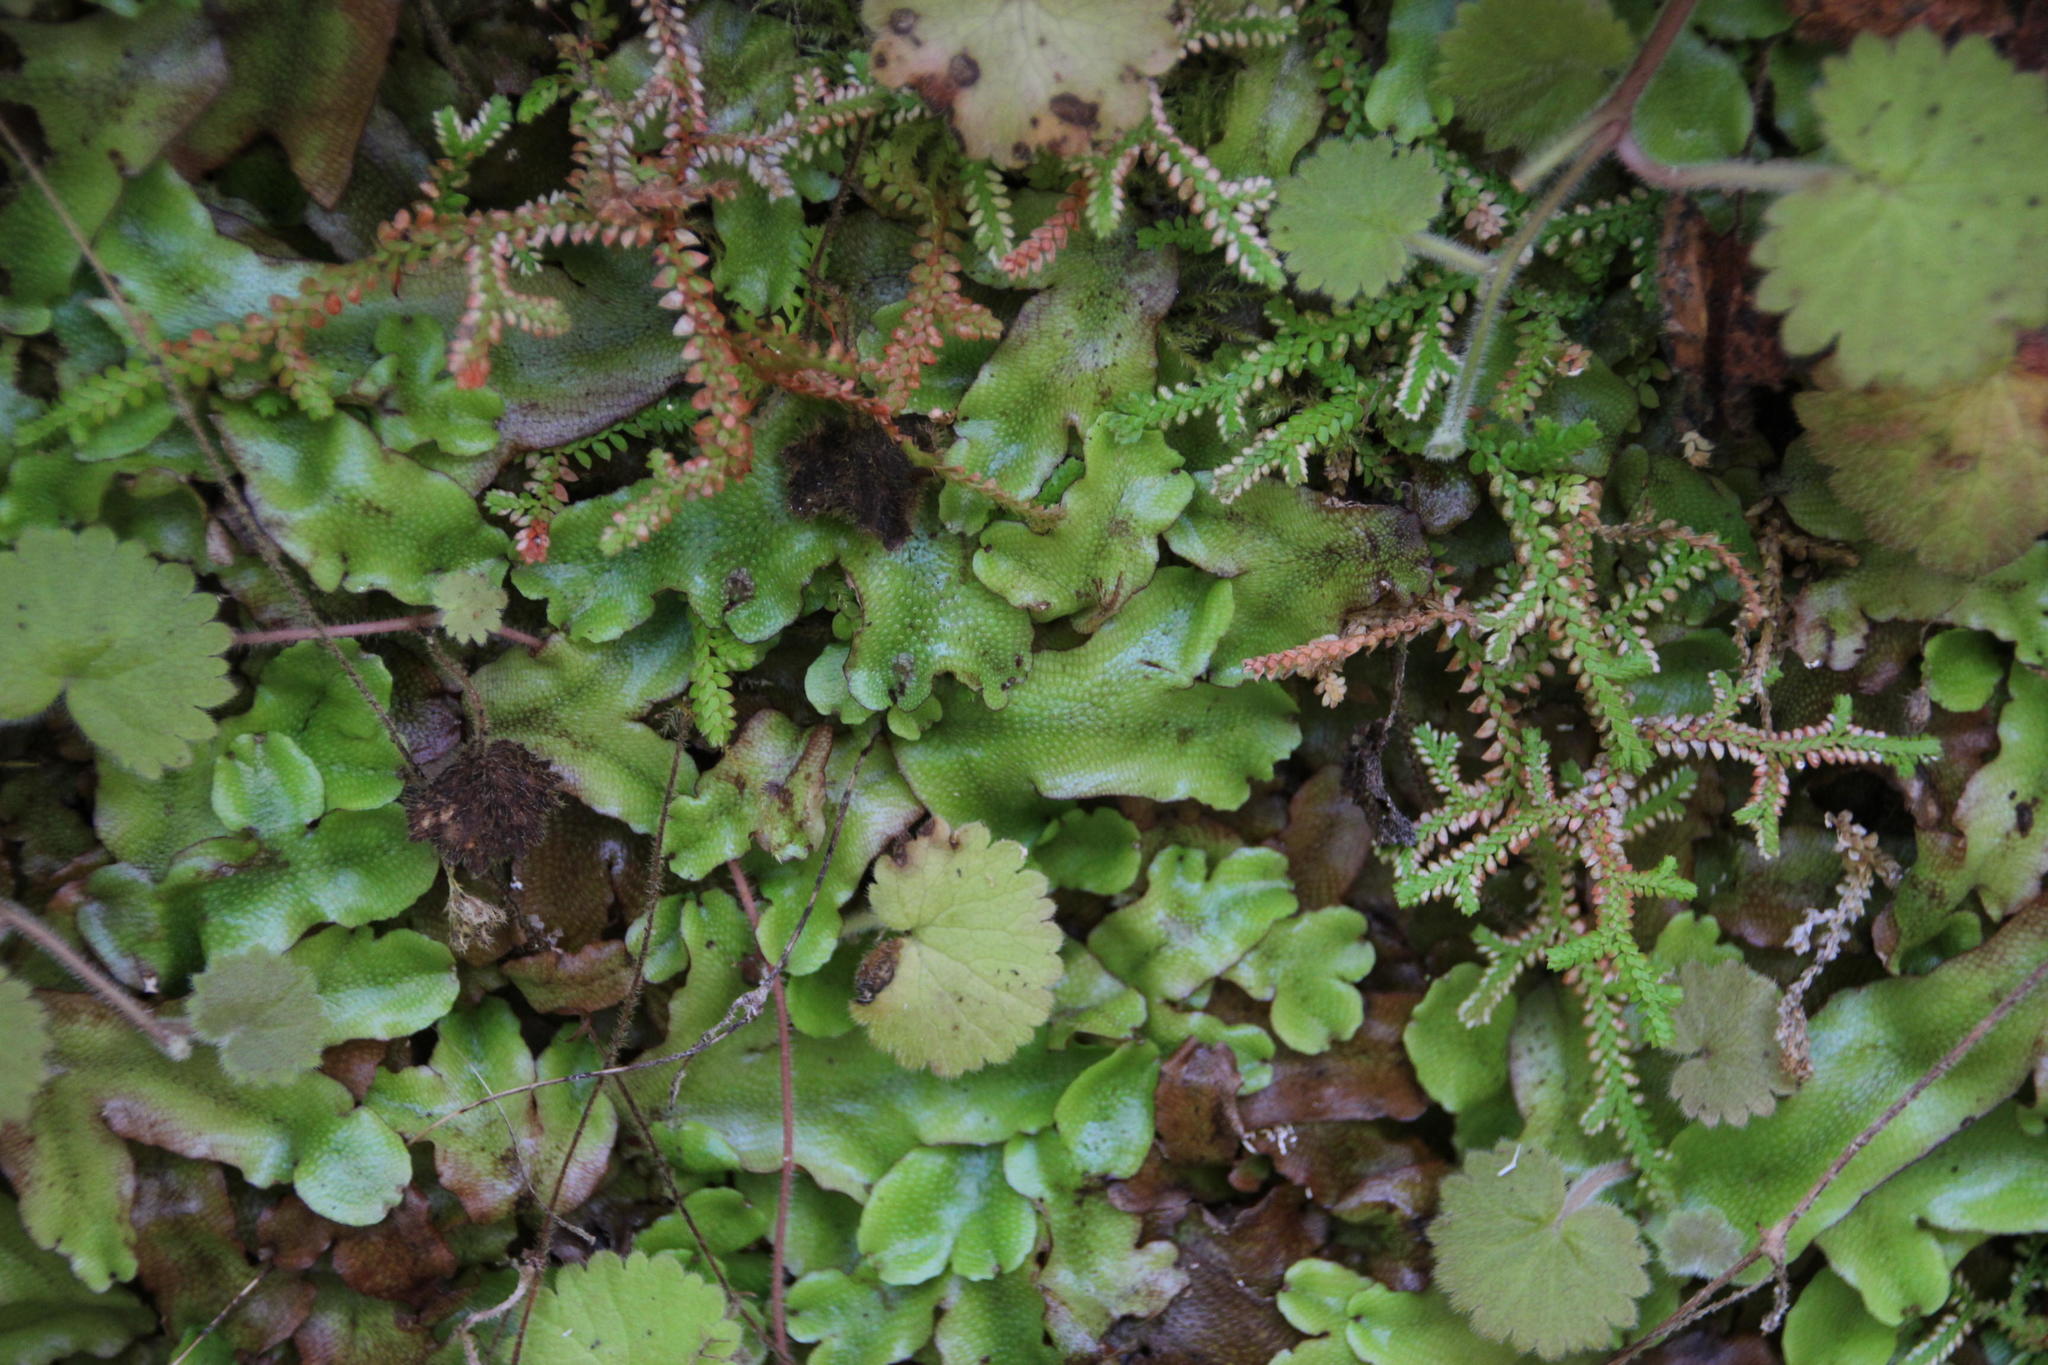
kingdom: Plantae
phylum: Marchantiophyta
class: Marchantiopsida
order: Marchantiales
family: Conocephalaceae
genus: Conocephalum
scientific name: Conocephalum conicum
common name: Great scented liverwort
